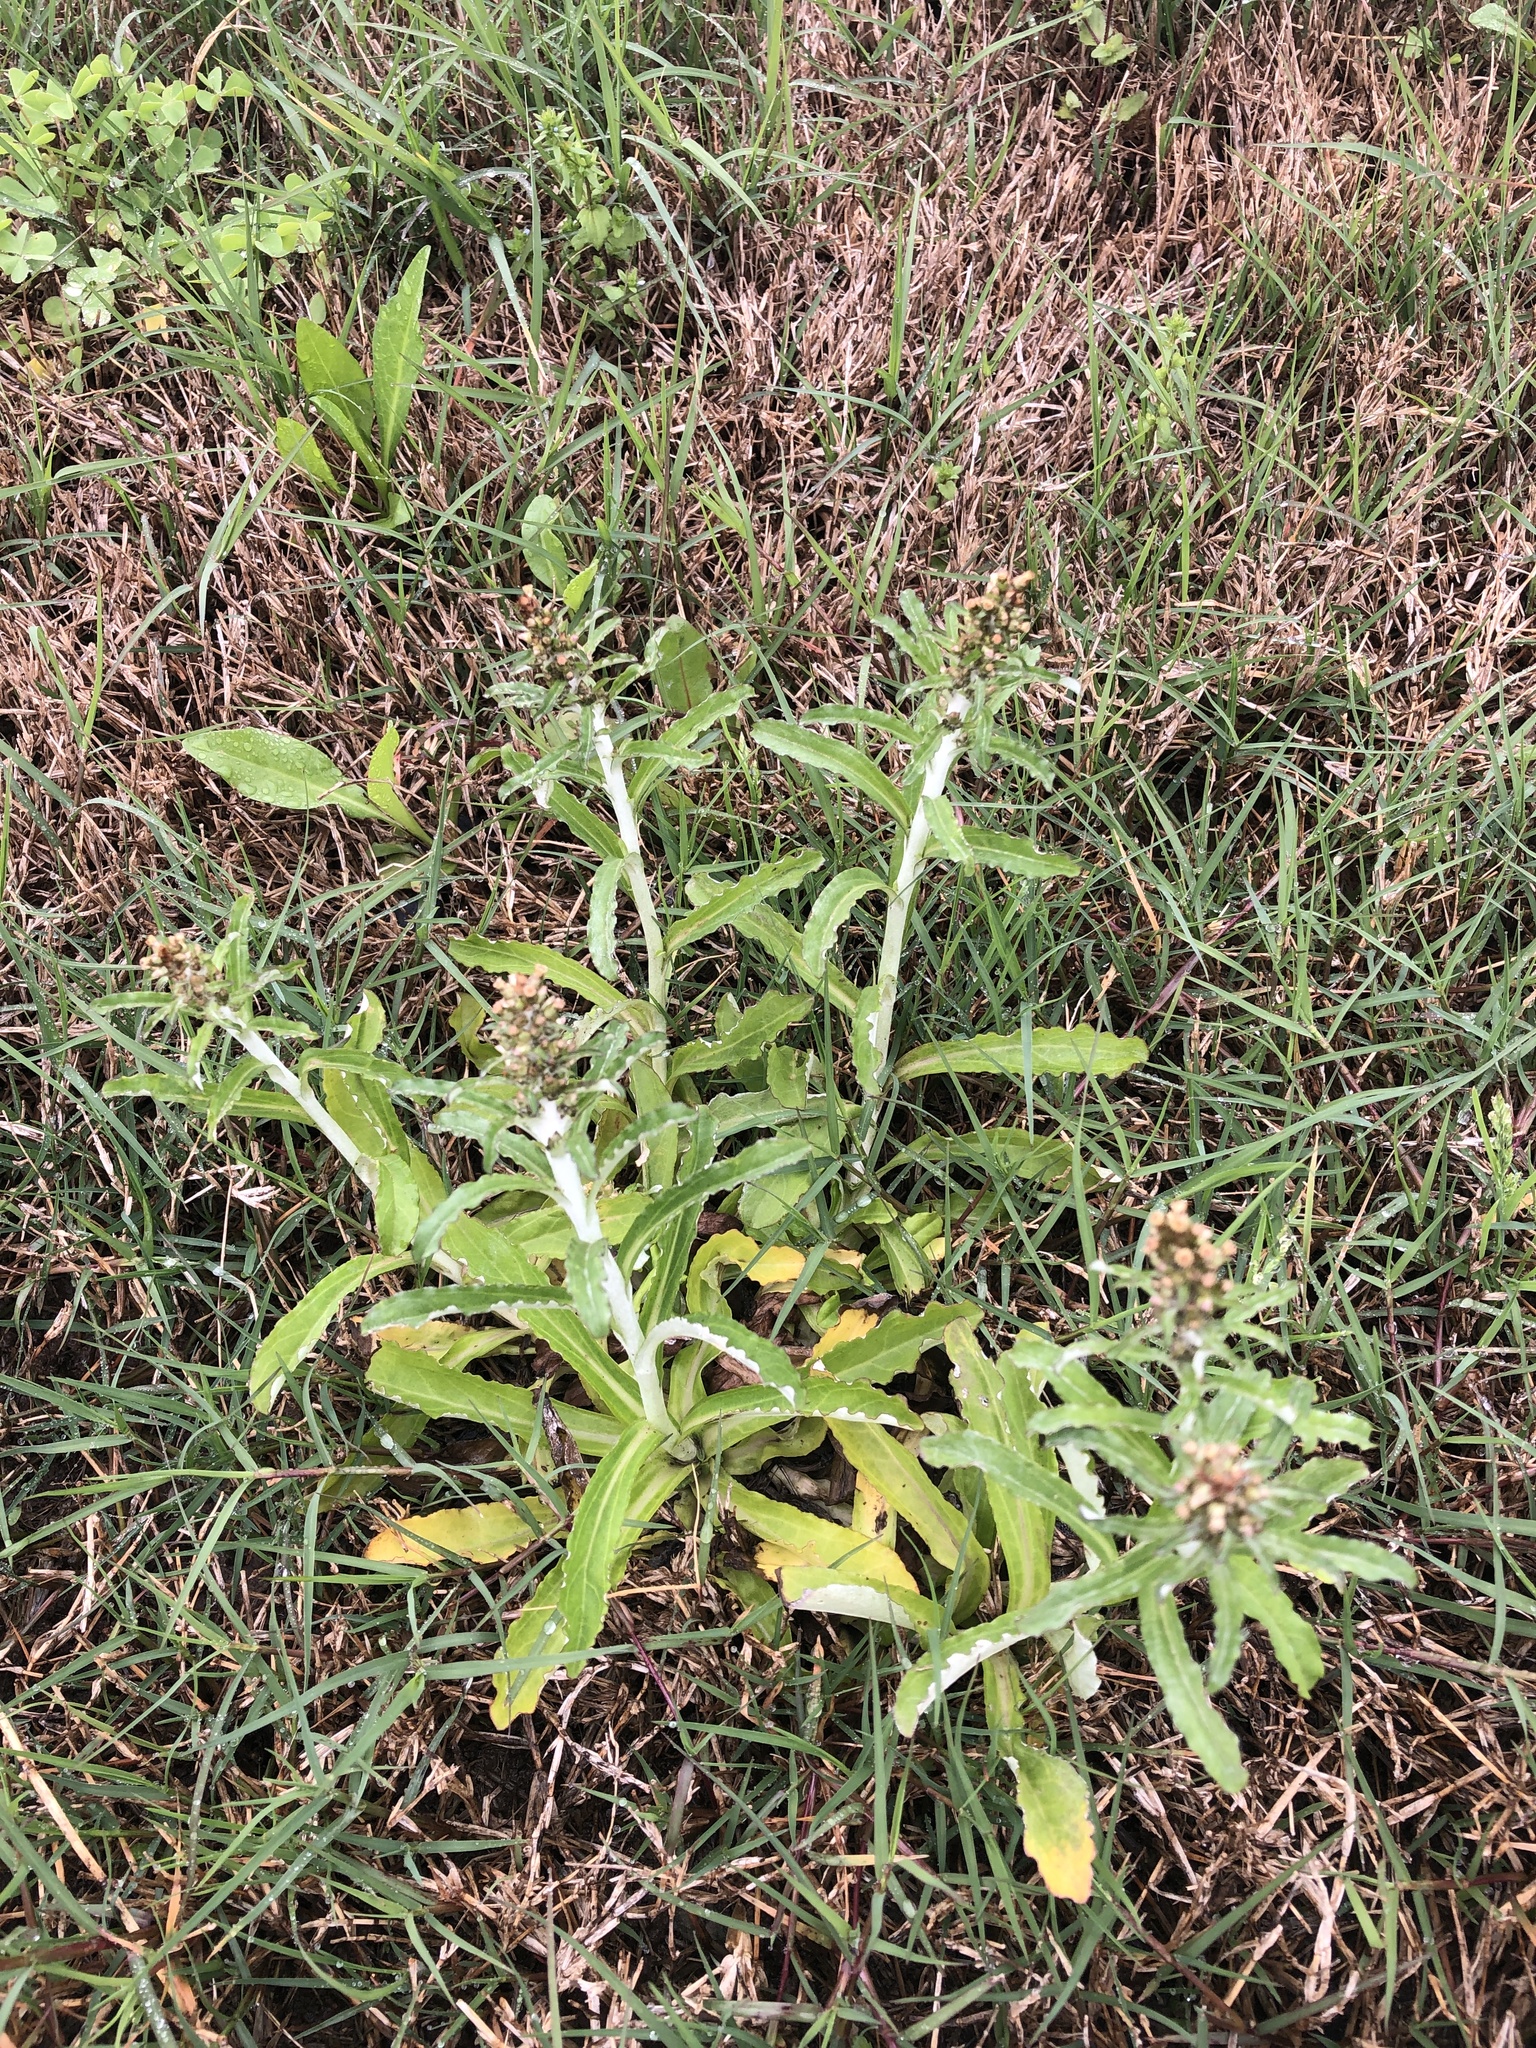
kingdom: Plantae
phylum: Tracheophyta
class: Magnoliopsida
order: Asterales
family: Asteraceae
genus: Gamochaeta
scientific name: Gamochaeta pensylvanica
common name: Pennsylvania everlasting
